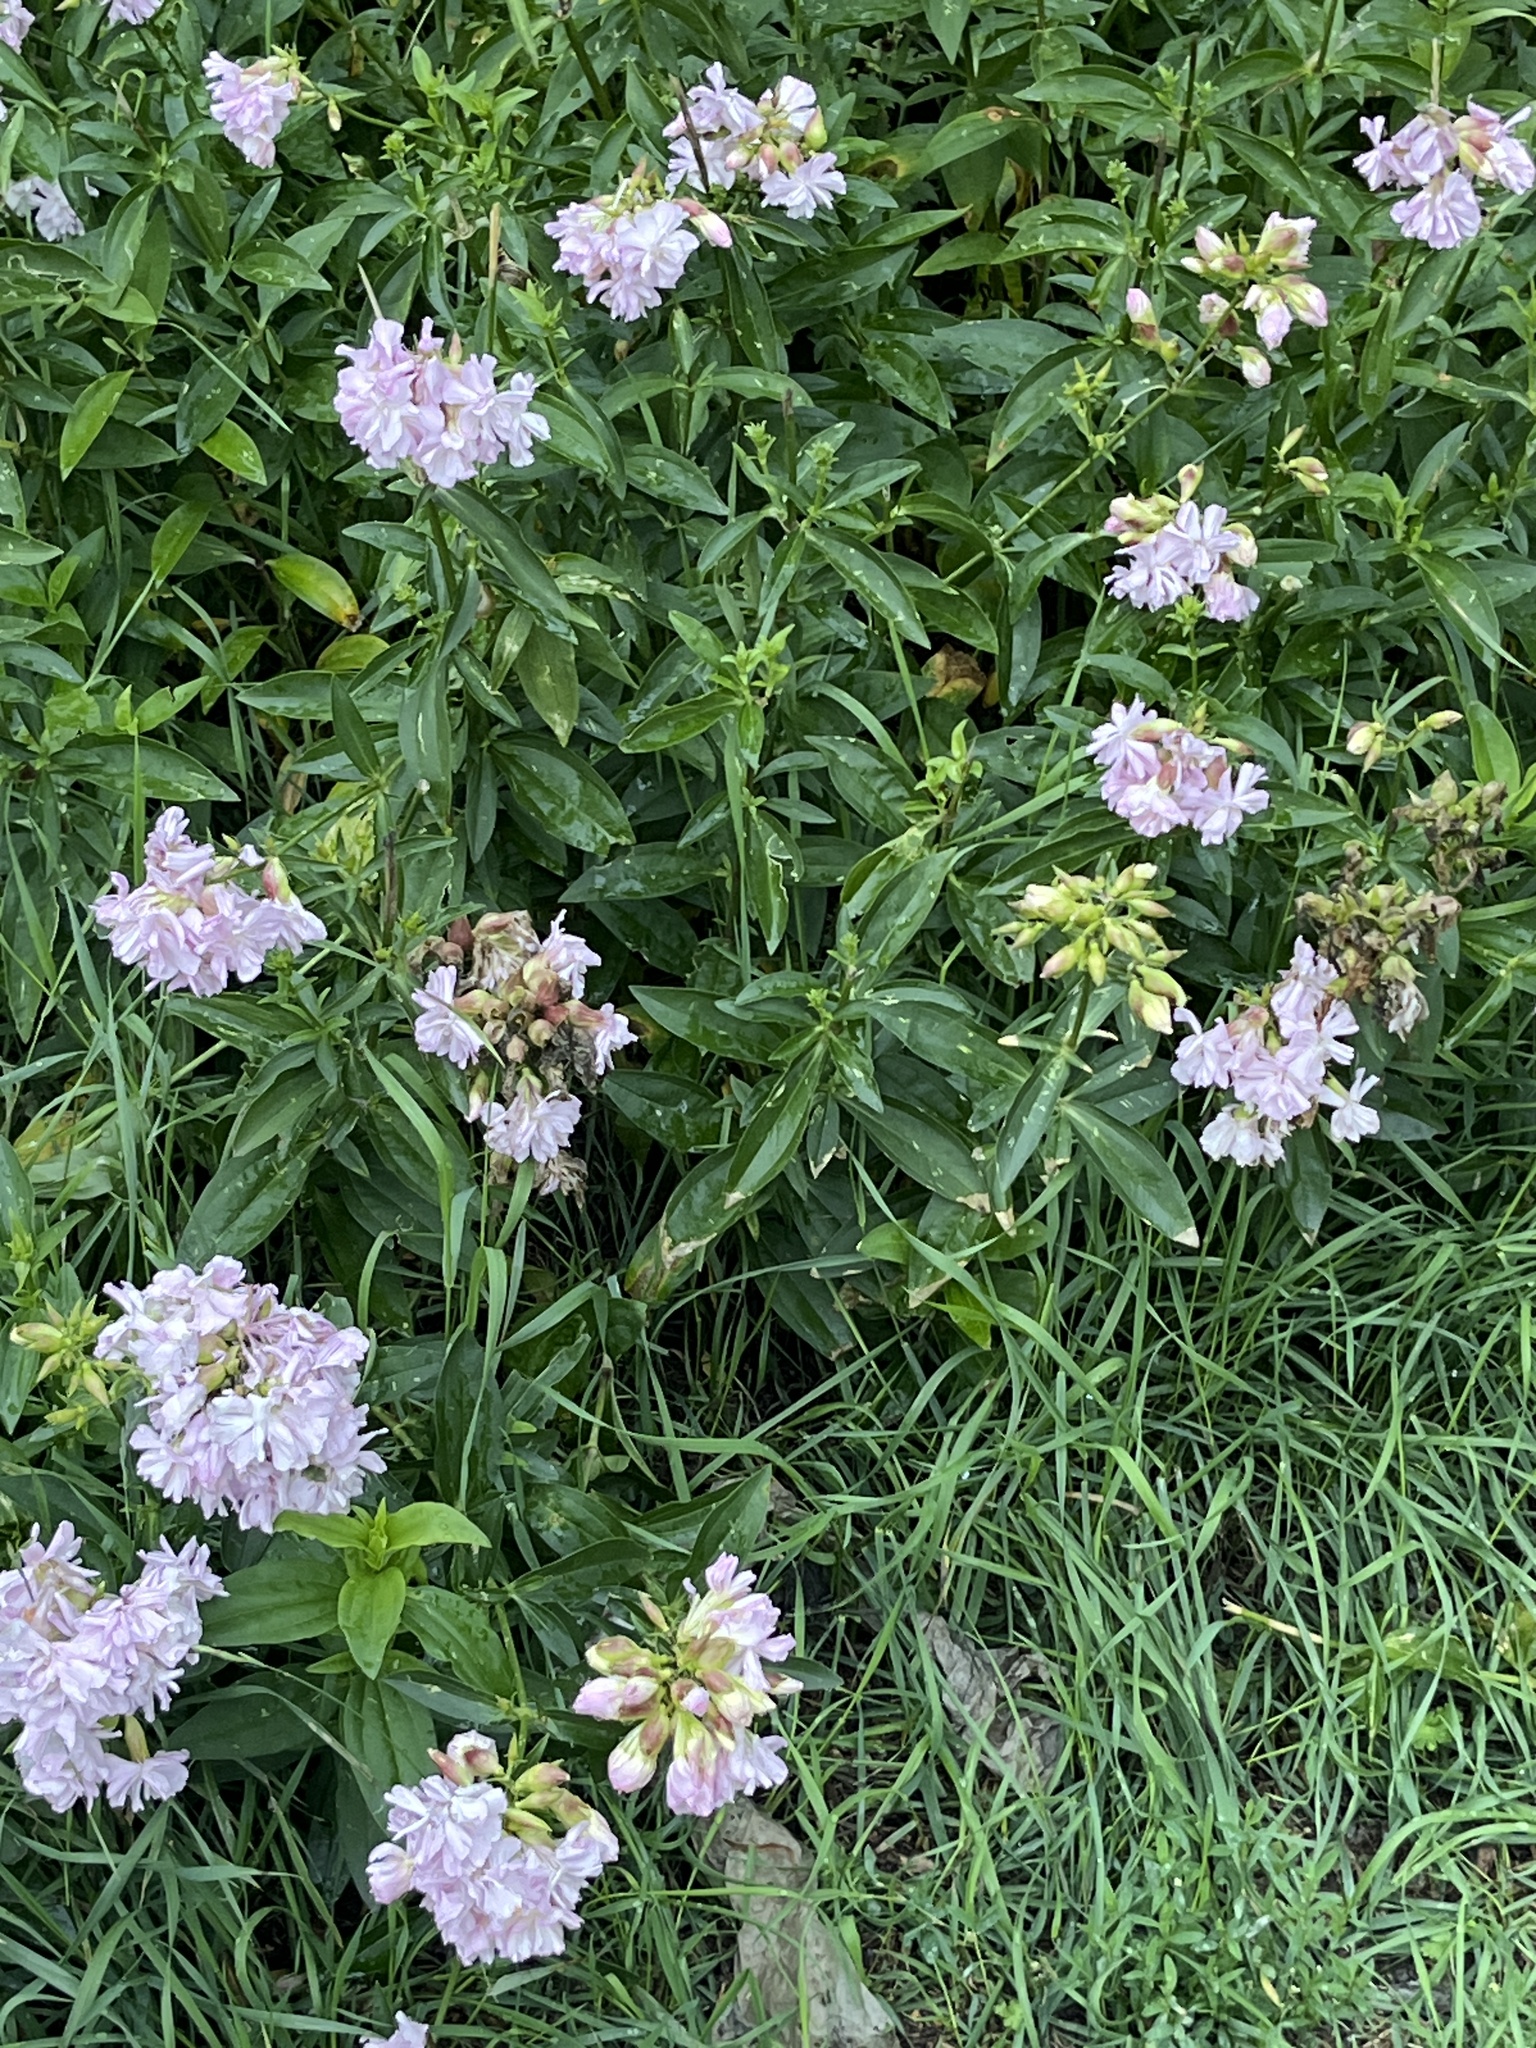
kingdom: Plantae
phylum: Tracheophyta
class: Magnoliopsida
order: Caryophyllales
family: Caryophyllaceae
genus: Saponaria
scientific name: Saponaria officinalis
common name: Soapwort
